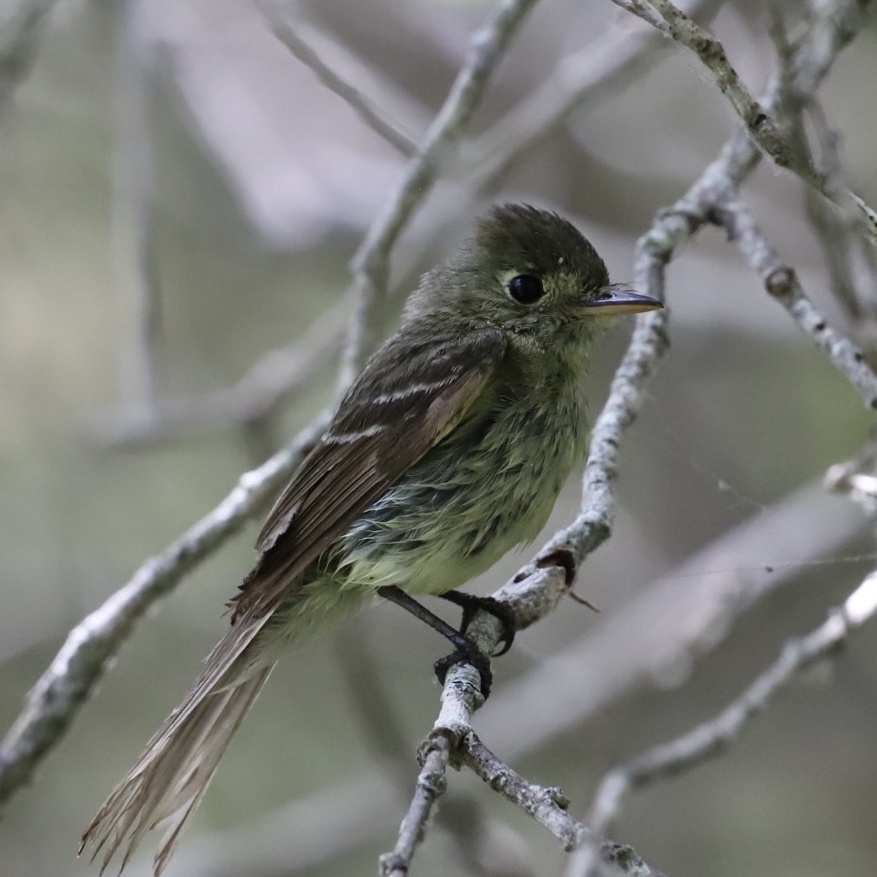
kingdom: Animalia
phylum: Chordata
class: Aves
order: Passeriformes
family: Tyrannidae
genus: Empidonax
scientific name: Empidonax difficilis
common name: Pacific-slope flycatcher
